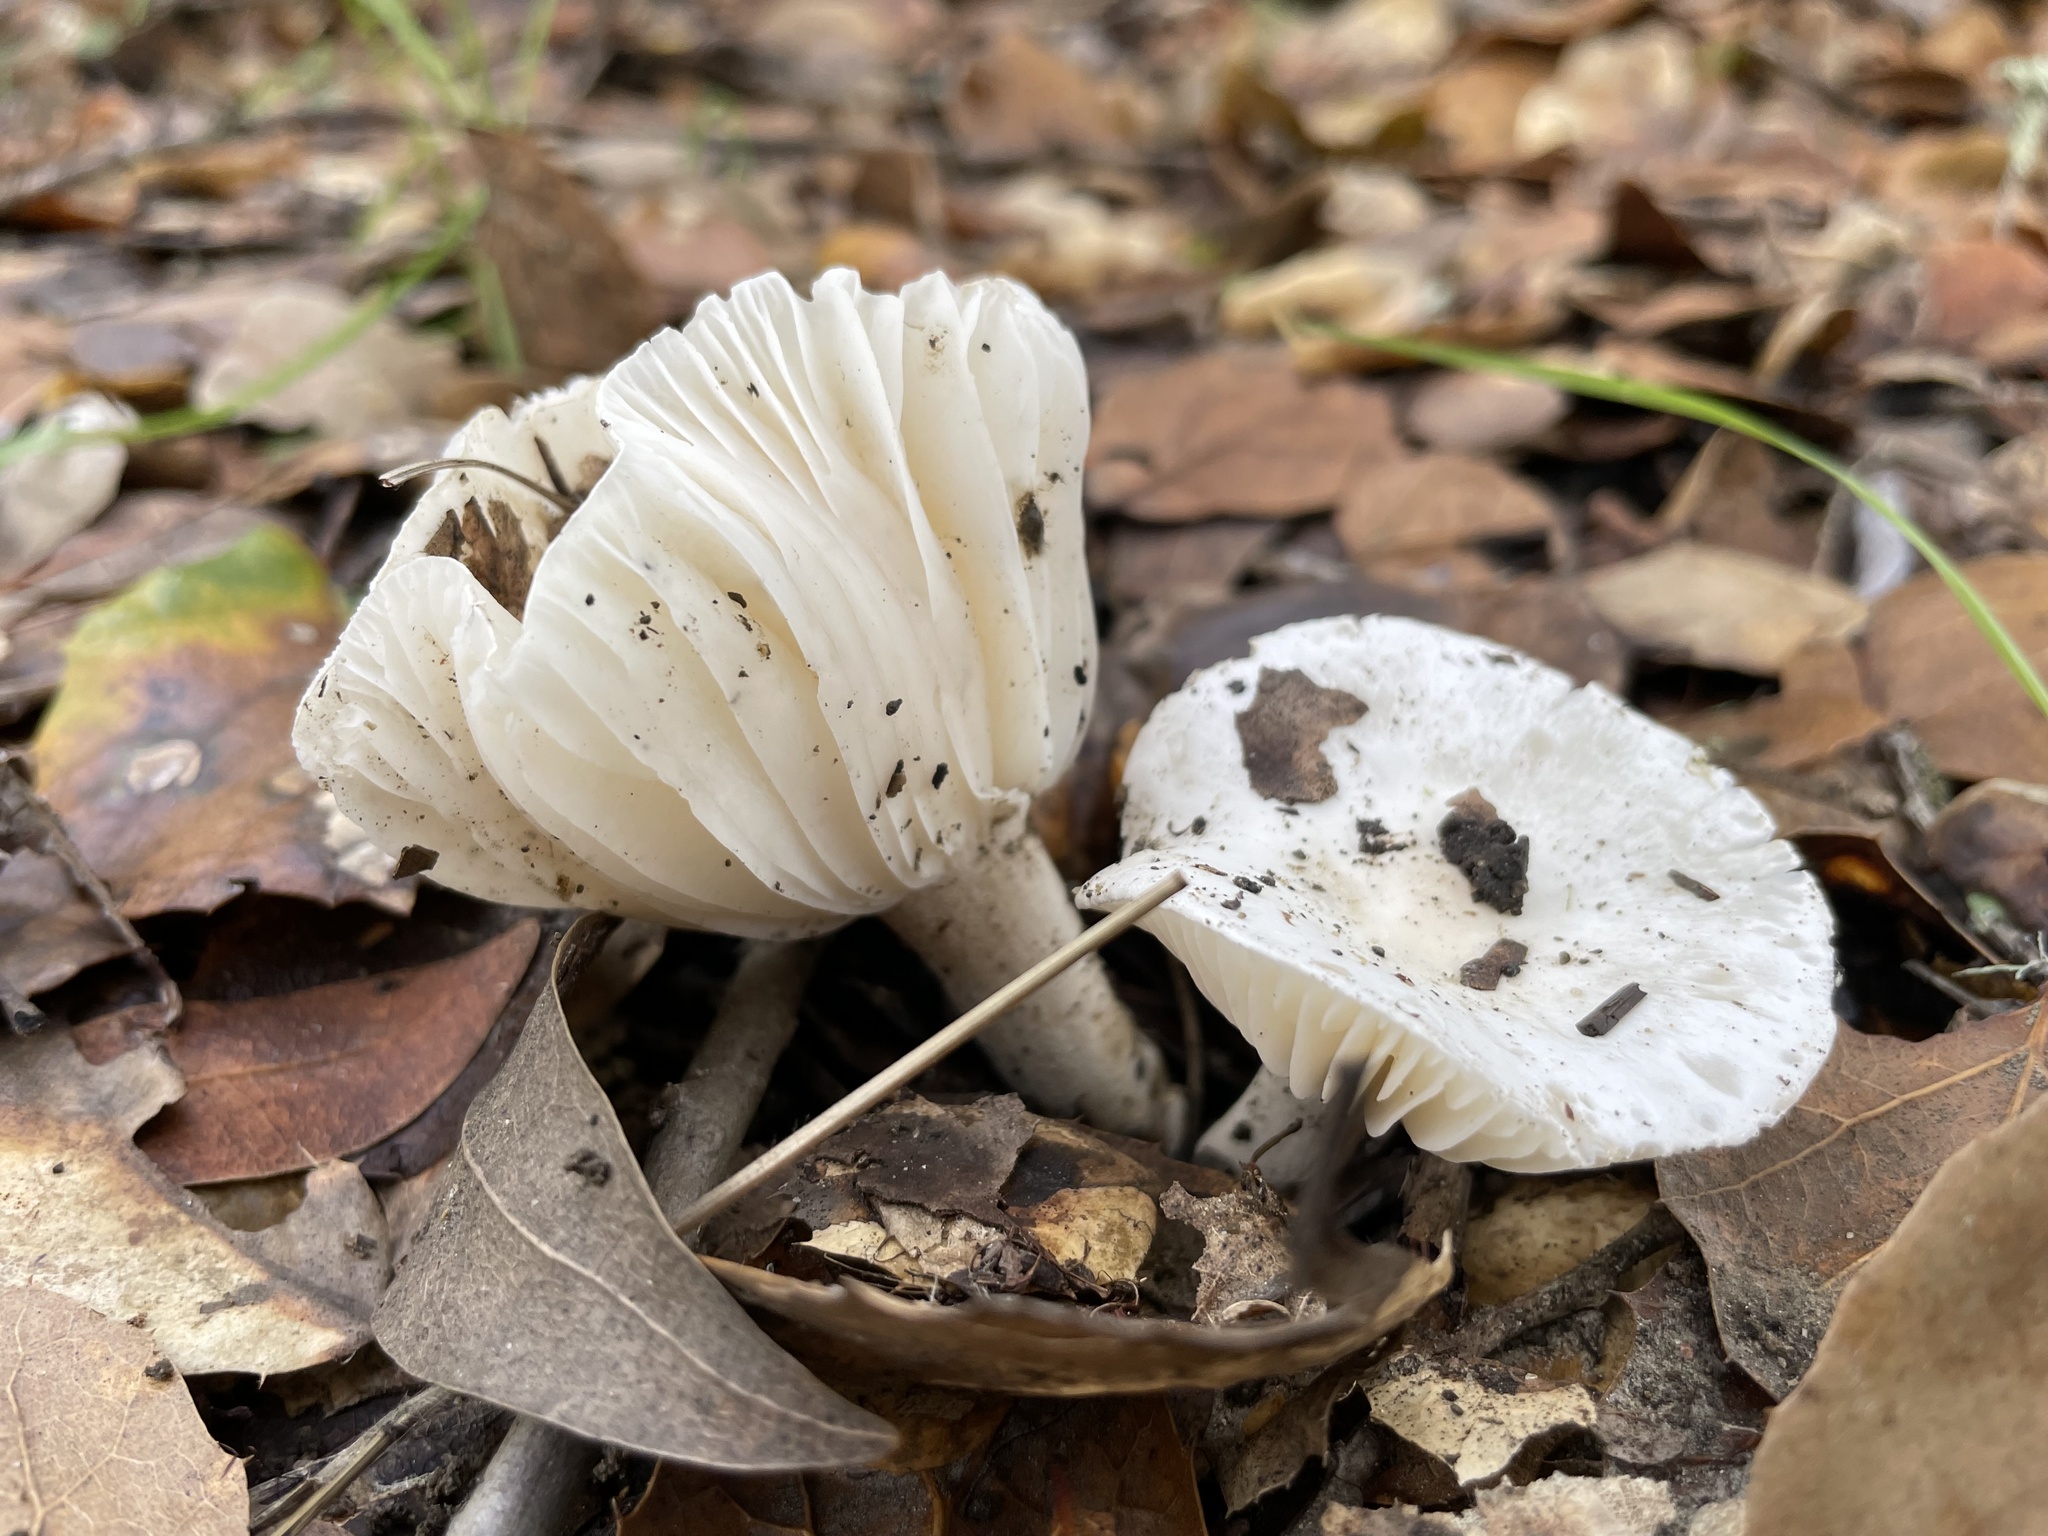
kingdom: Fungi
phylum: Basidiomycota
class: Agaricomycetes
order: Agaricales
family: Hygrophoraceae
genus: Hygrophorus
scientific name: Hygrophorus eburneus
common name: Ivory wax-cap
